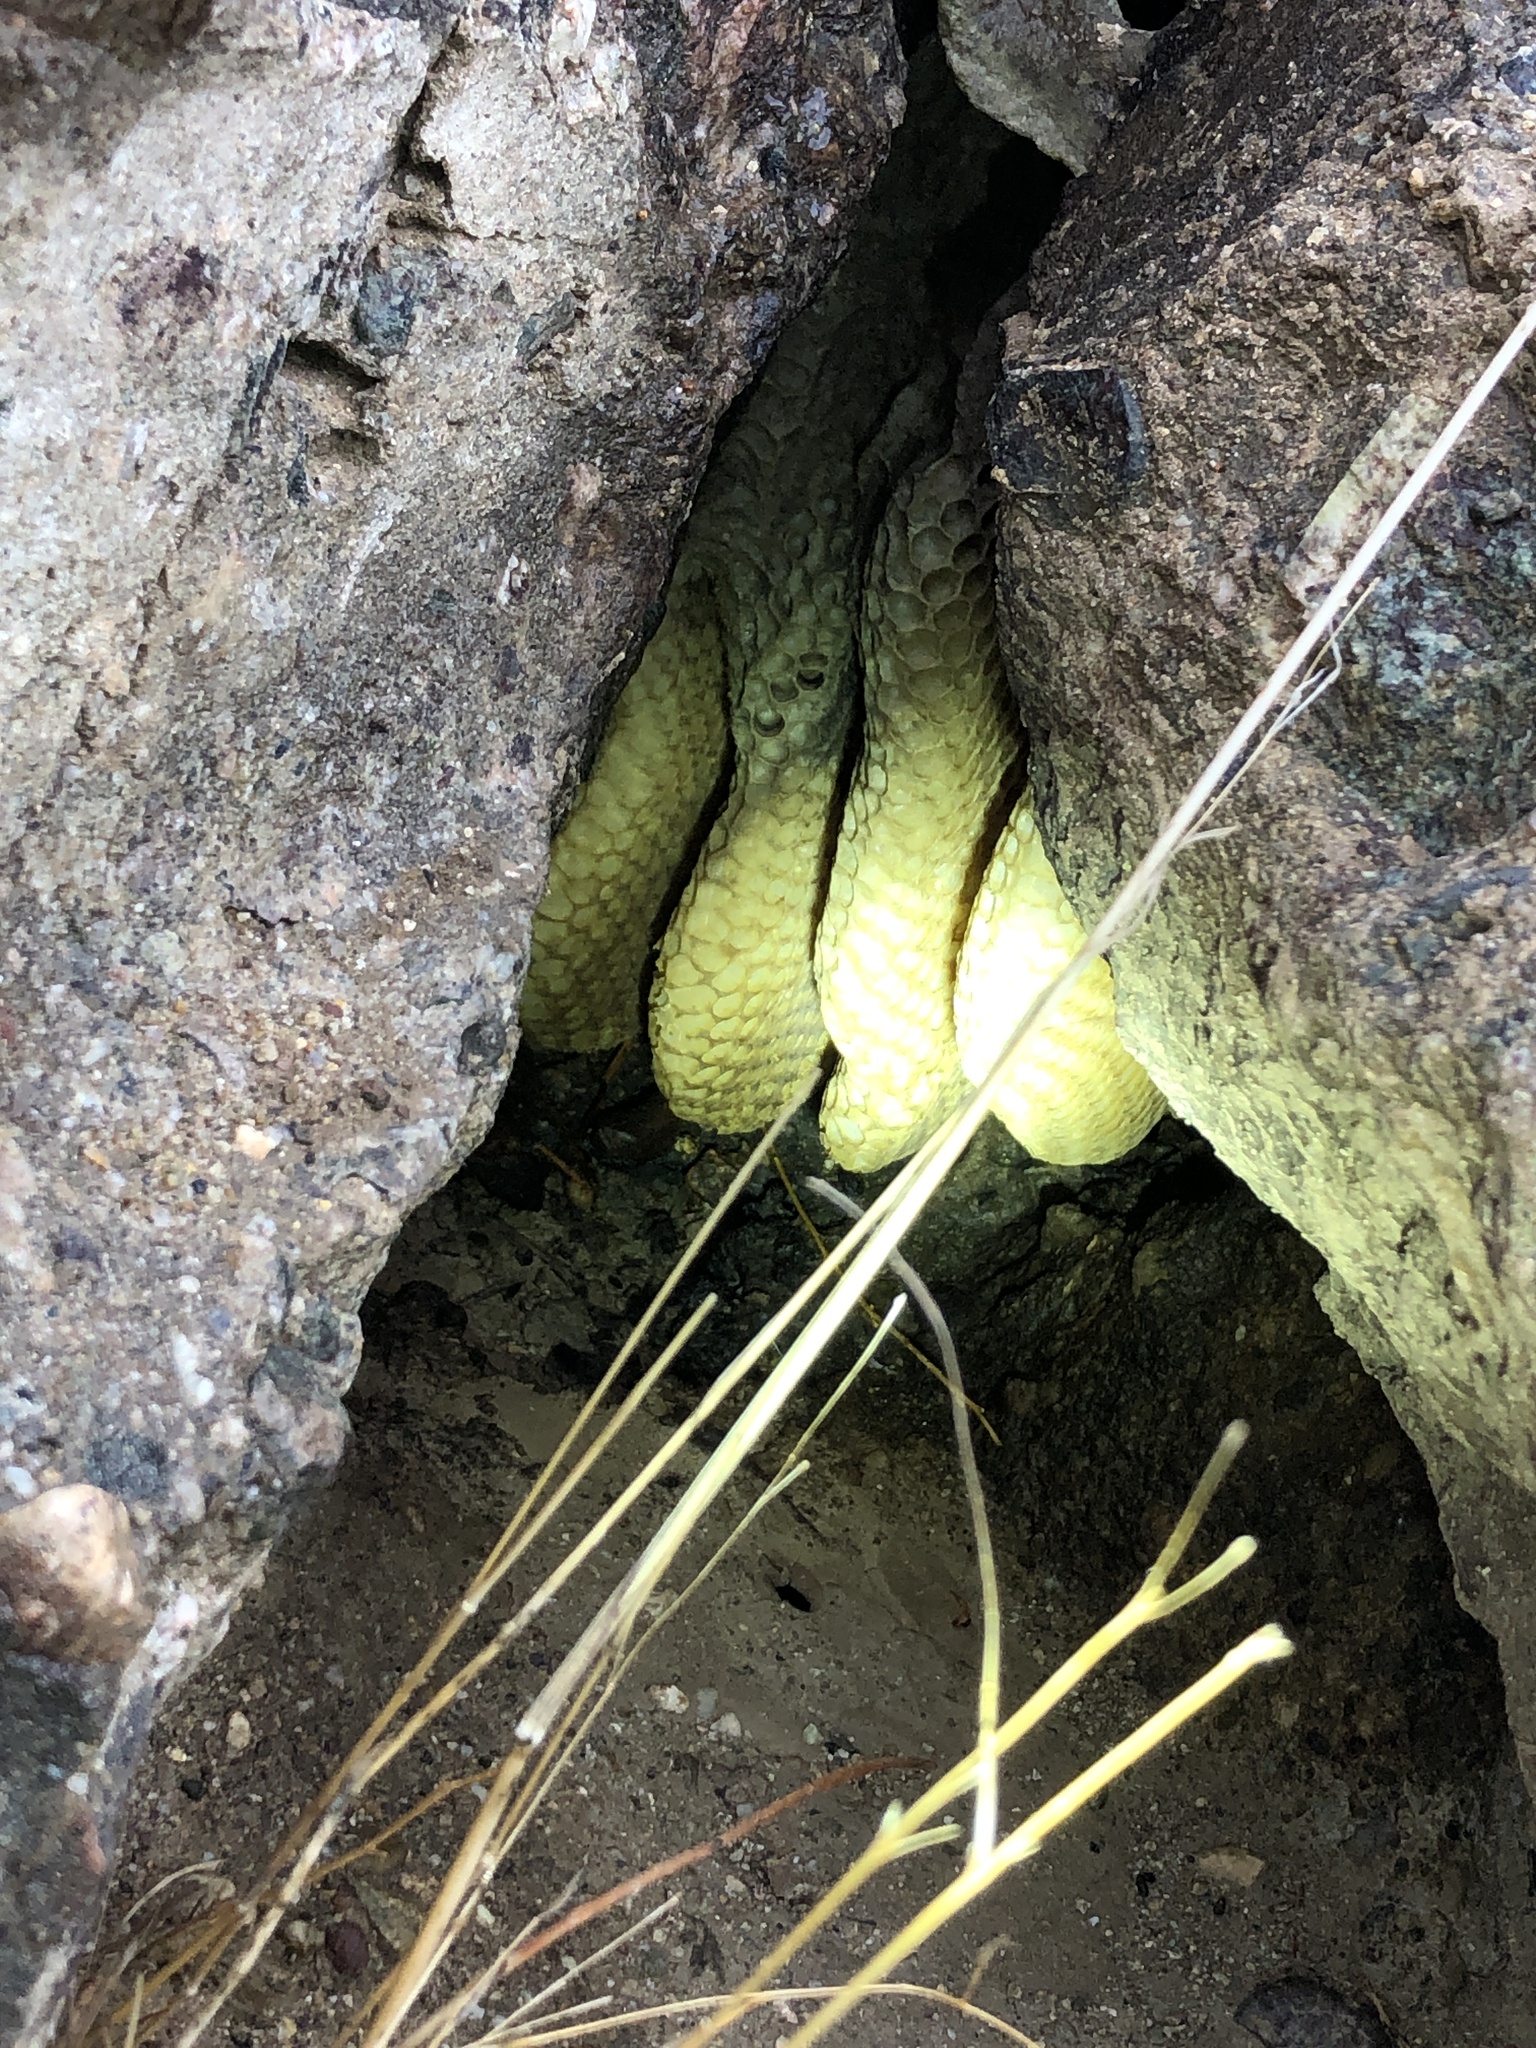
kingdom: Animalia
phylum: Arthropoda
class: Insecta
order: Hymenoptera
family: Apidae
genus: Apis
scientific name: Apis mellifera
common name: Honey bee
